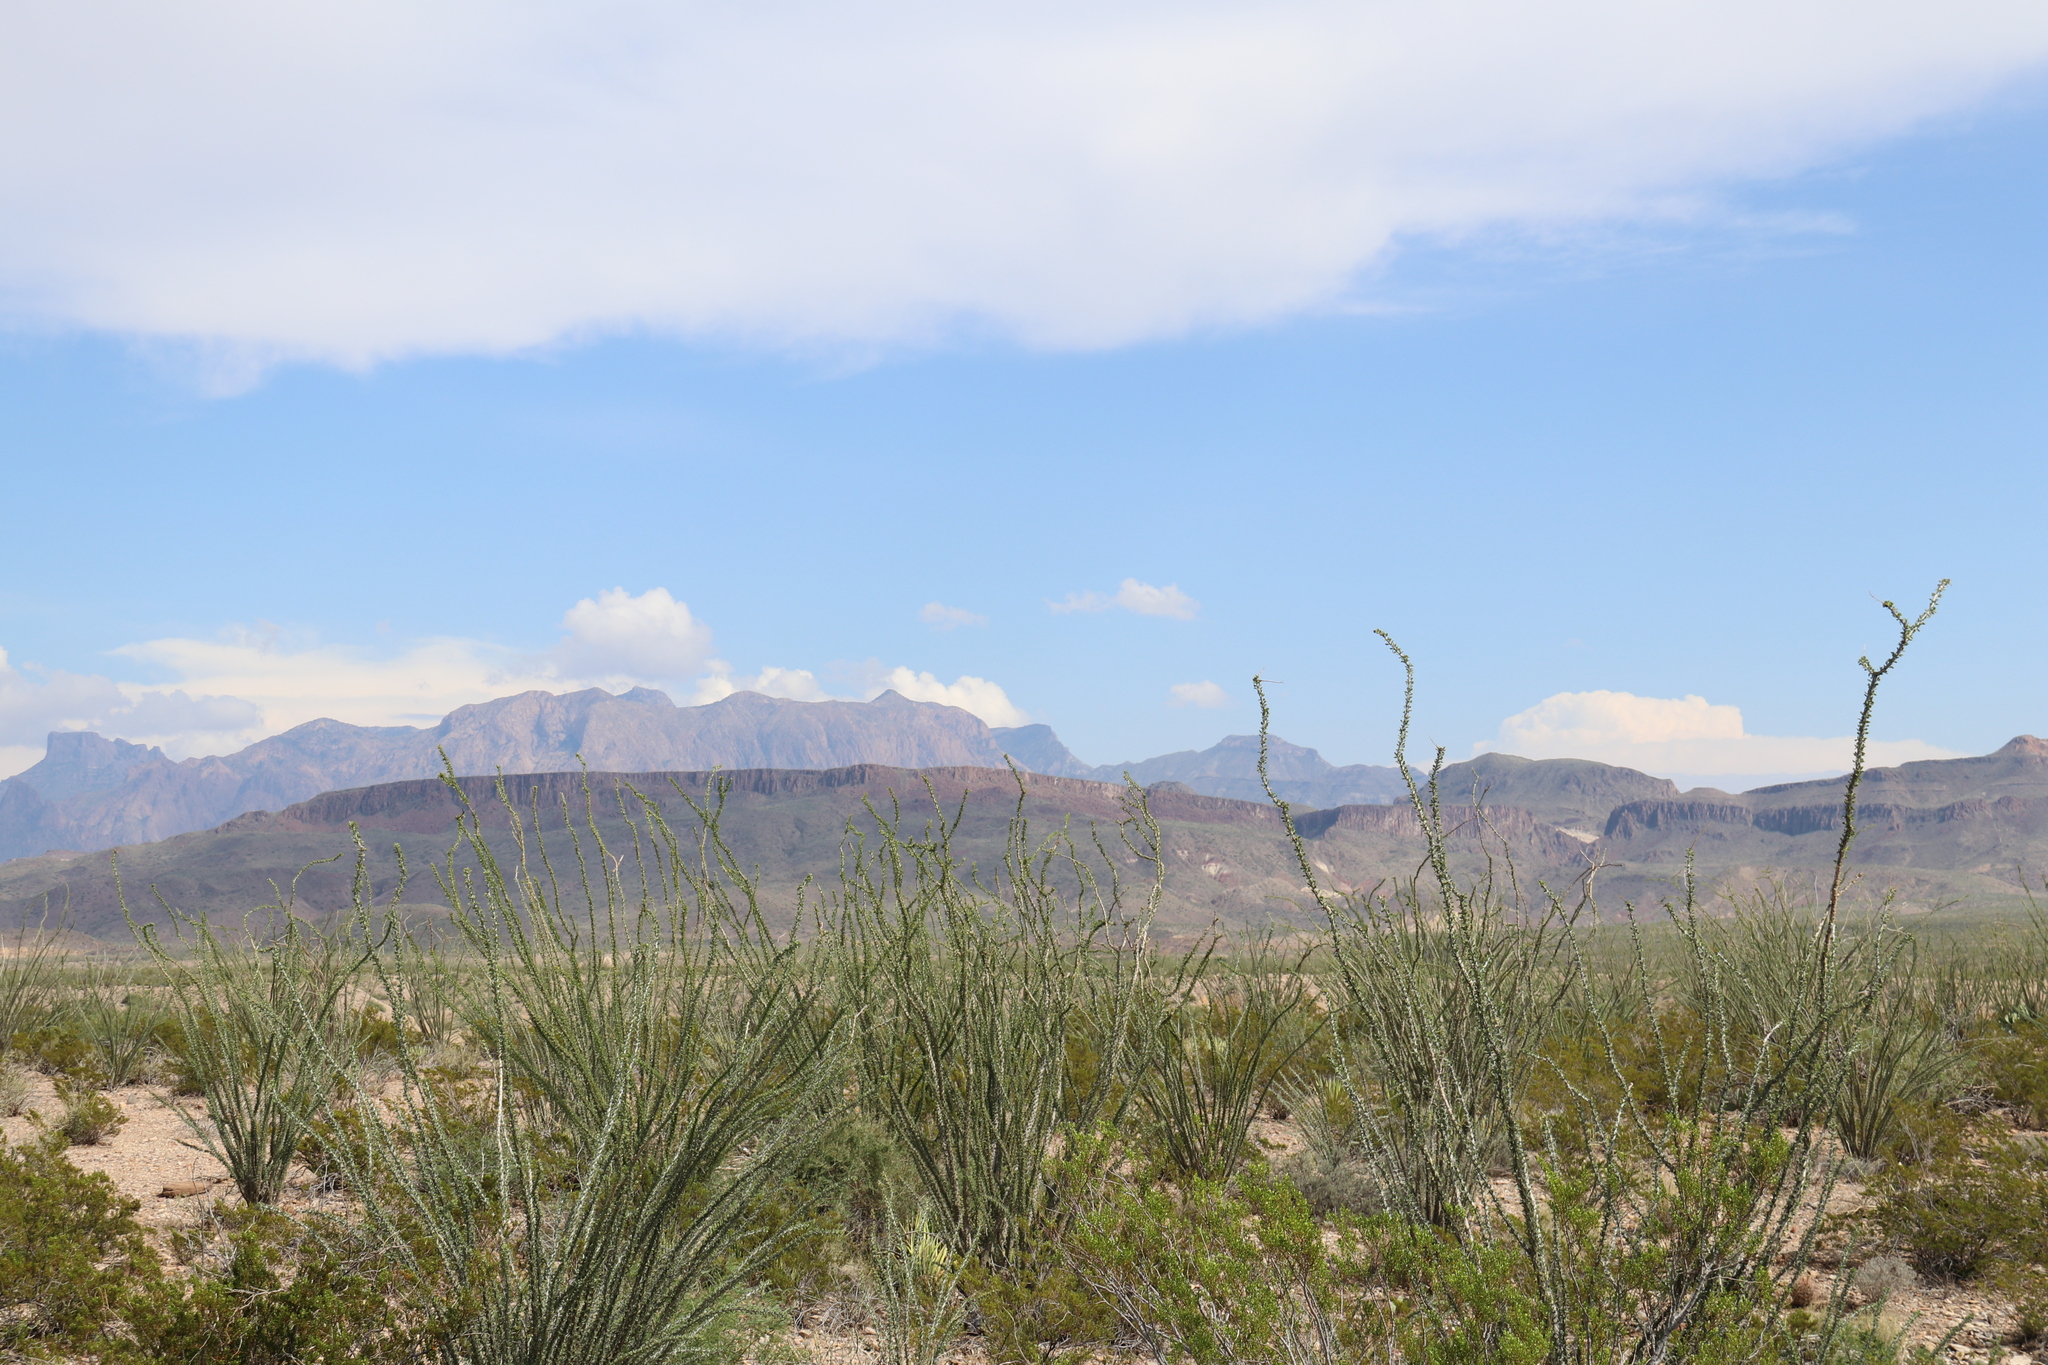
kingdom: Plantae
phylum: Tracheophyta
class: Magnoliopsida
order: Ericales
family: Fouquieriaceae
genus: Fouquieria
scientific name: Fouquieria splendens
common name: Vine-cactus
